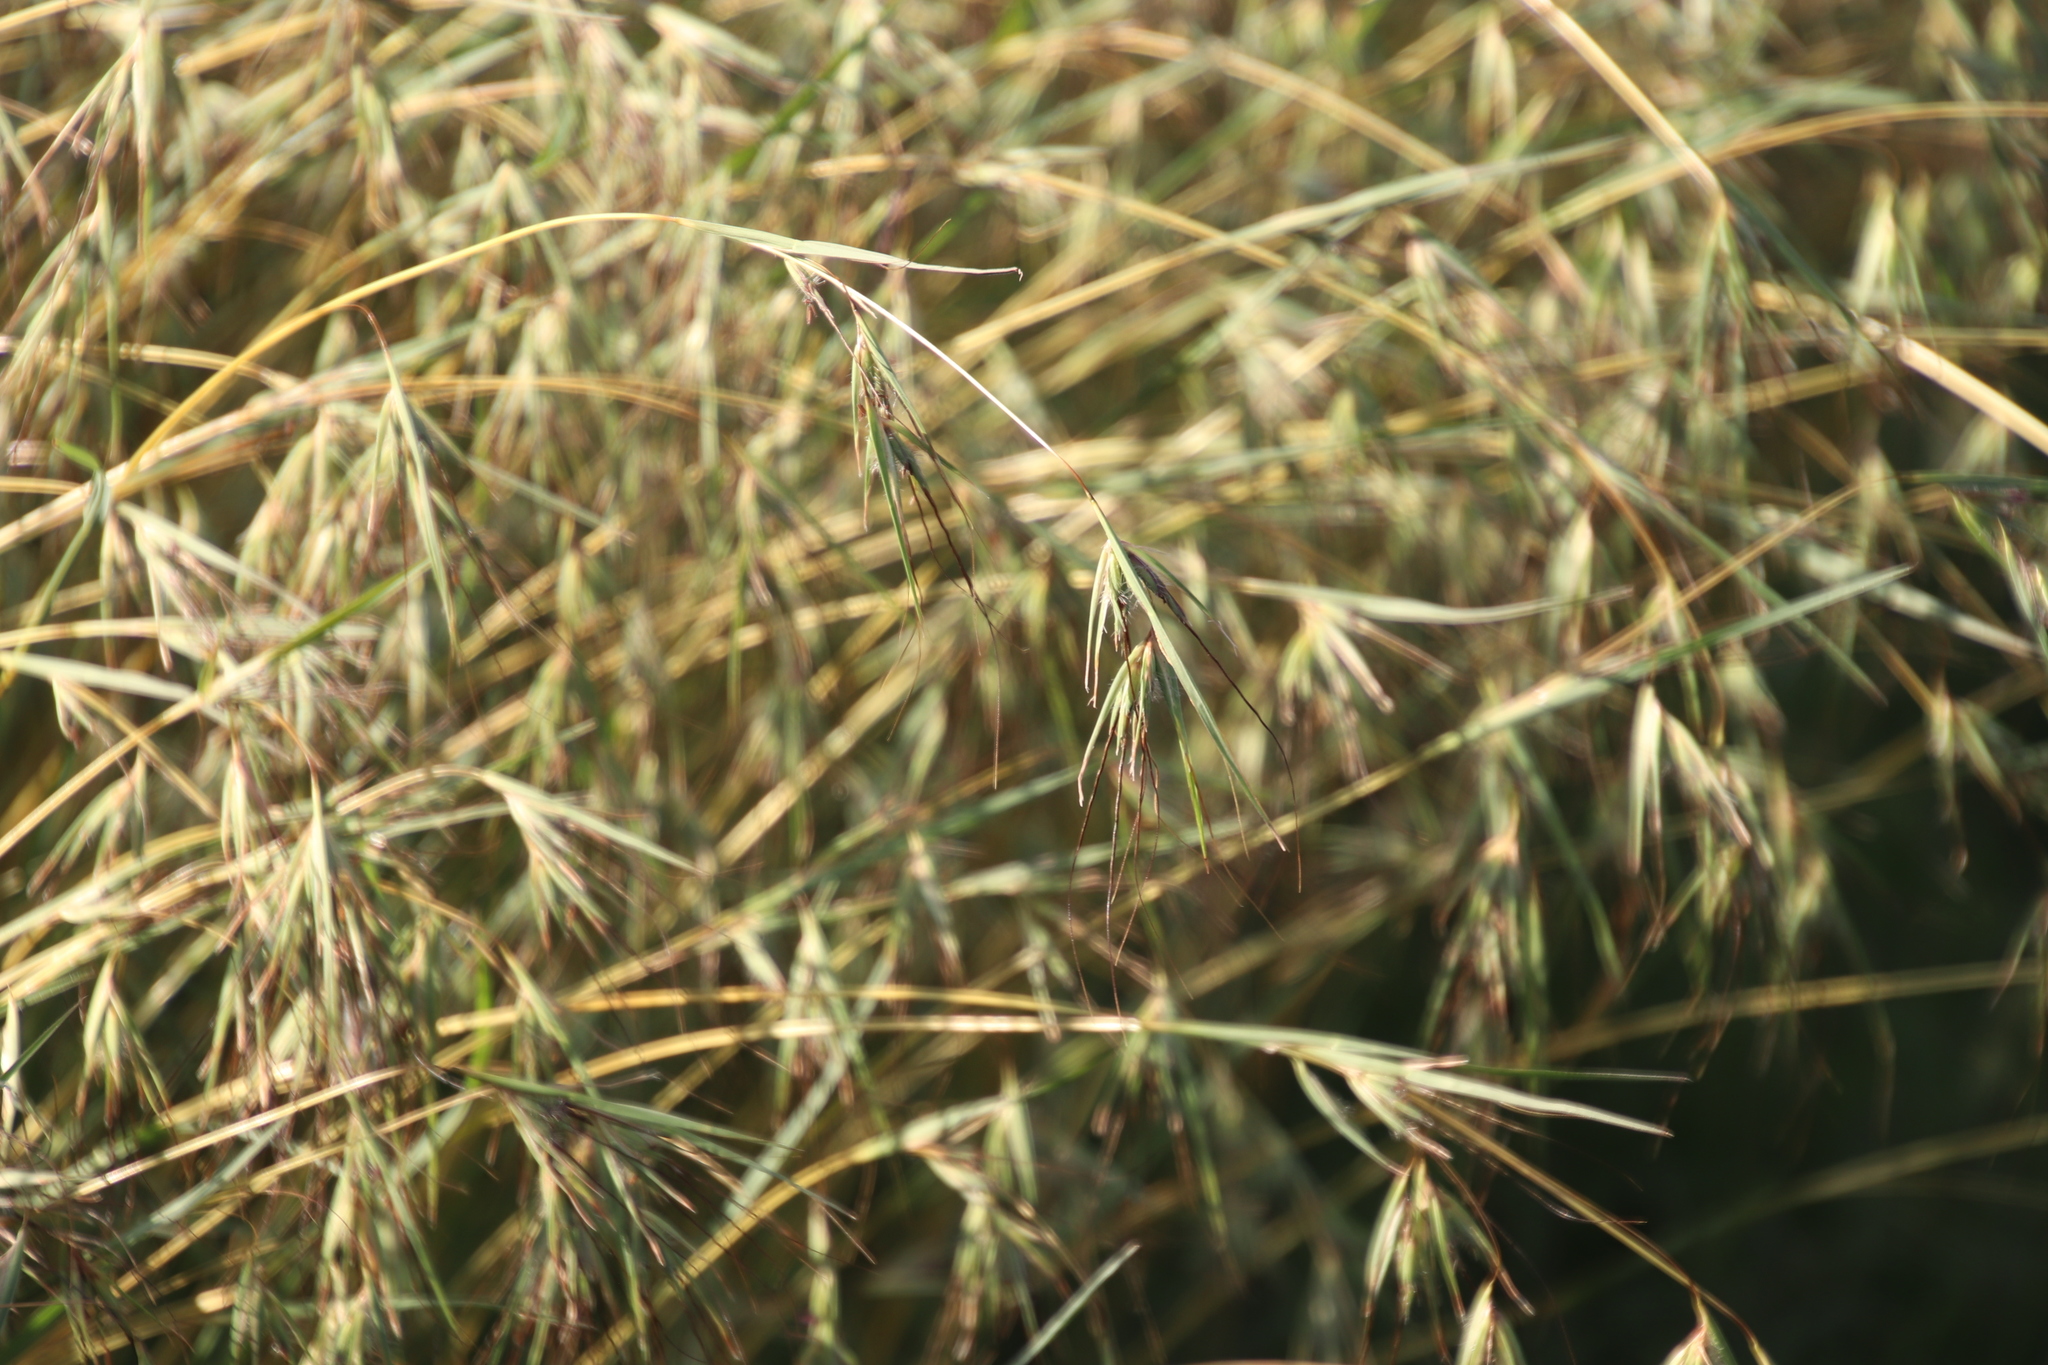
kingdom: Plantae
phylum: Tracheophyta
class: Liliopsida
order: Poales
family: Poaceae
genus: Themeda
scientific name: Themeda triandra
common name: Kangaroo grass
